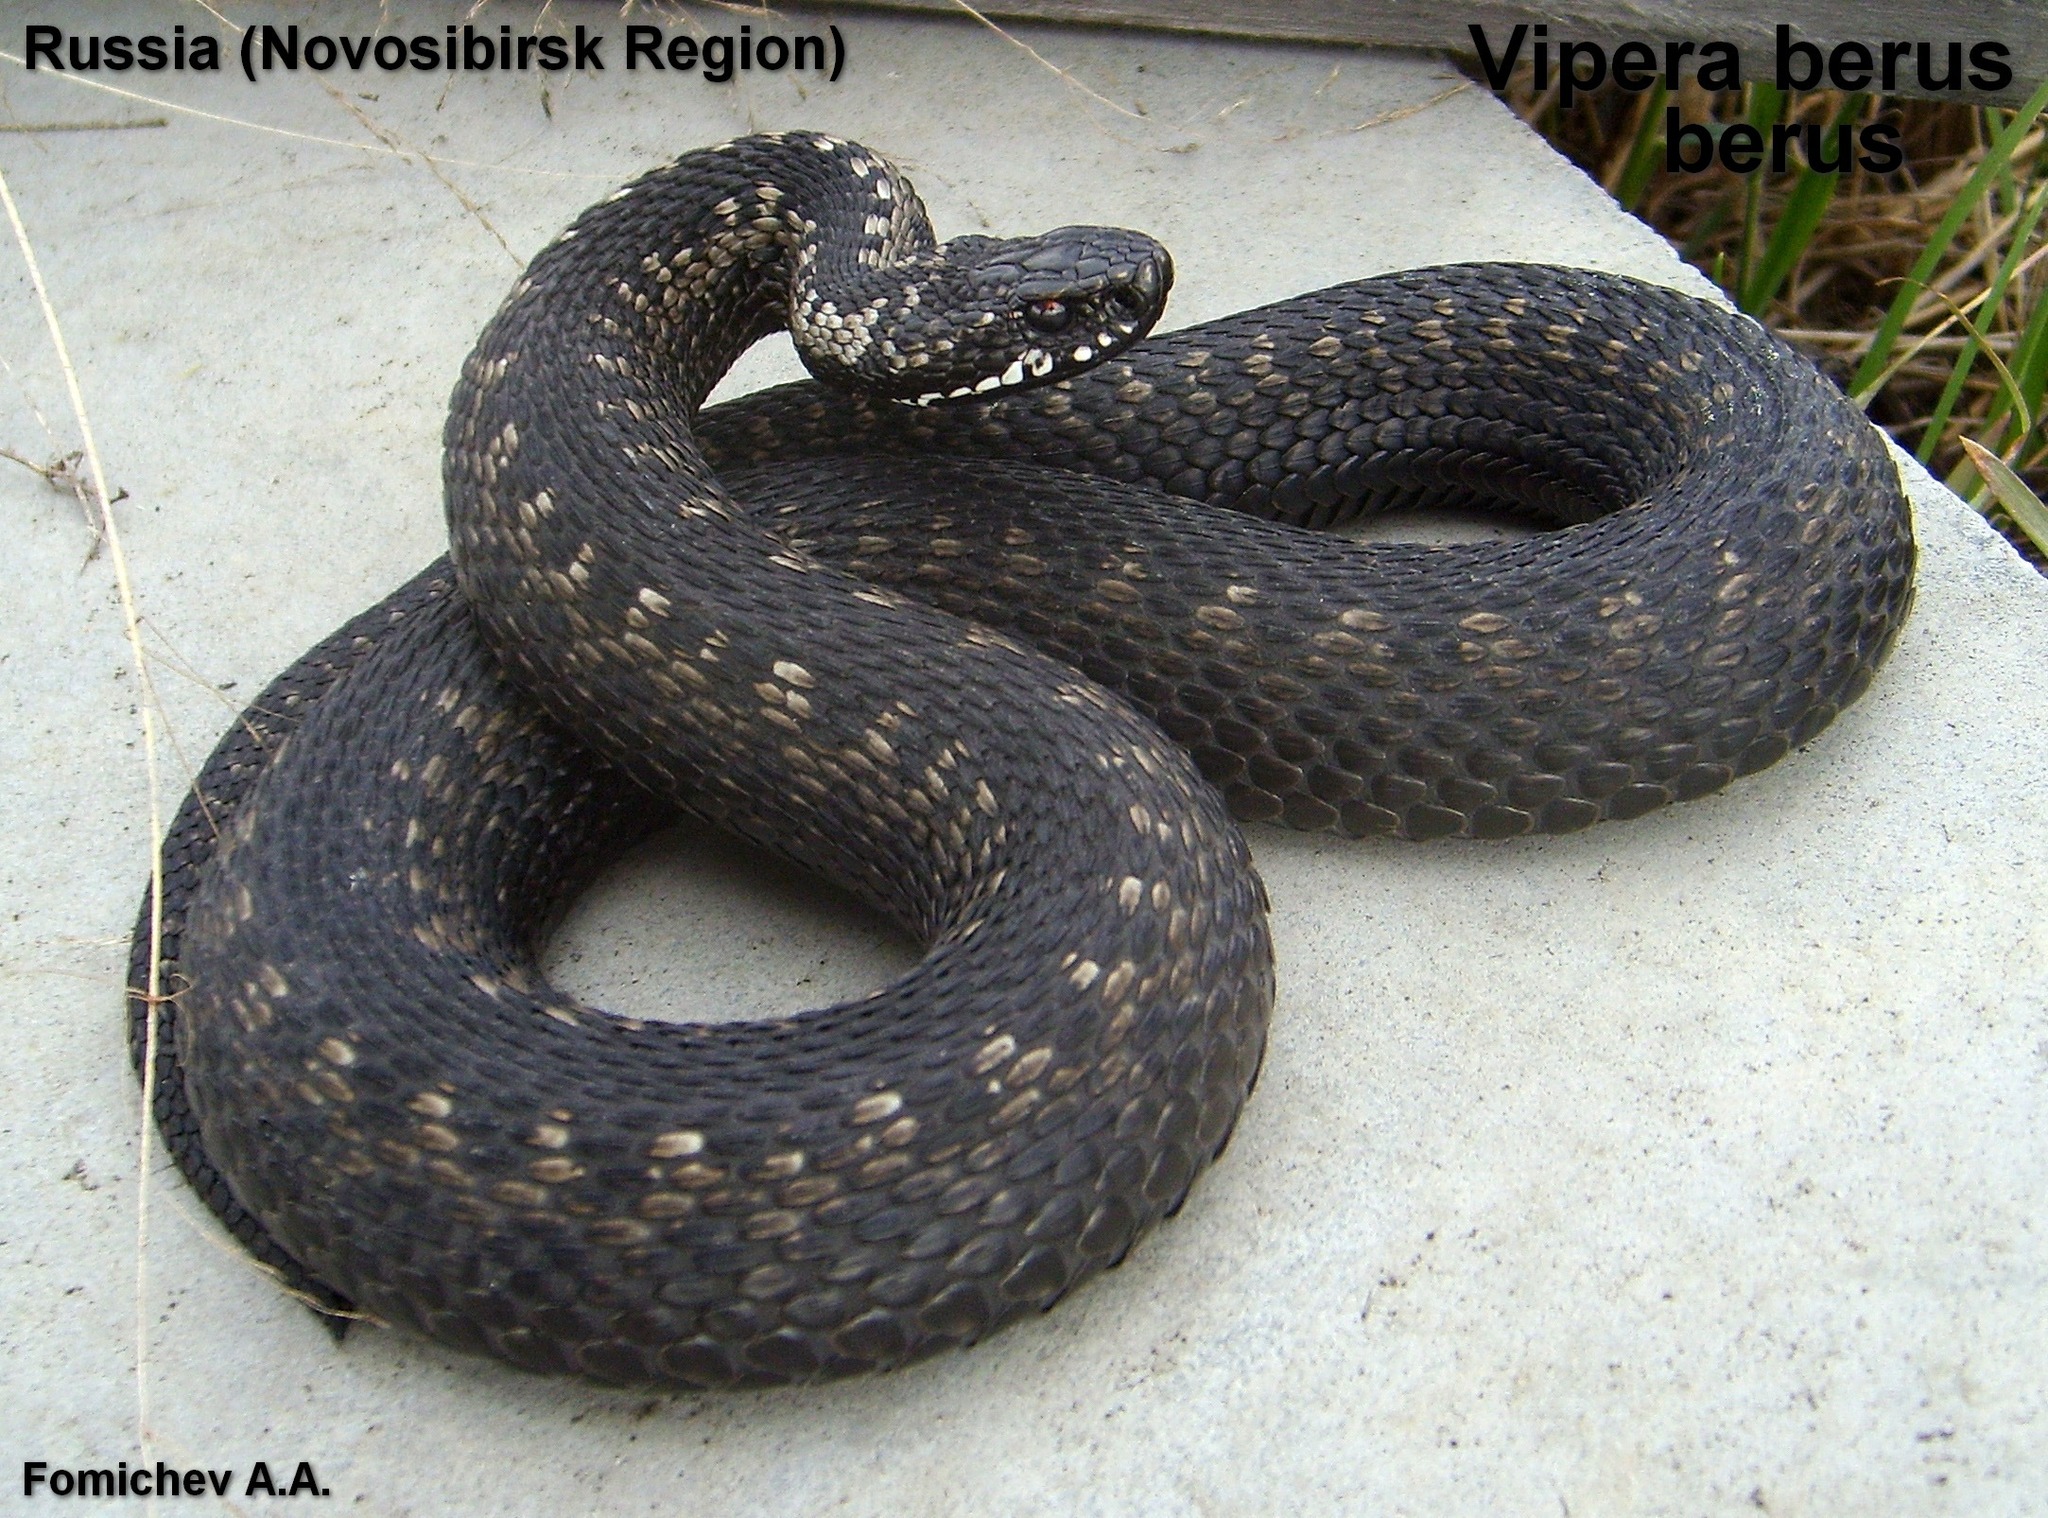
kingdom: Animalia
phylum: Chordata
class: Squamata
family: Viperidae
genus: Vipera
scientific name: Vipera berus
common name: Adder
